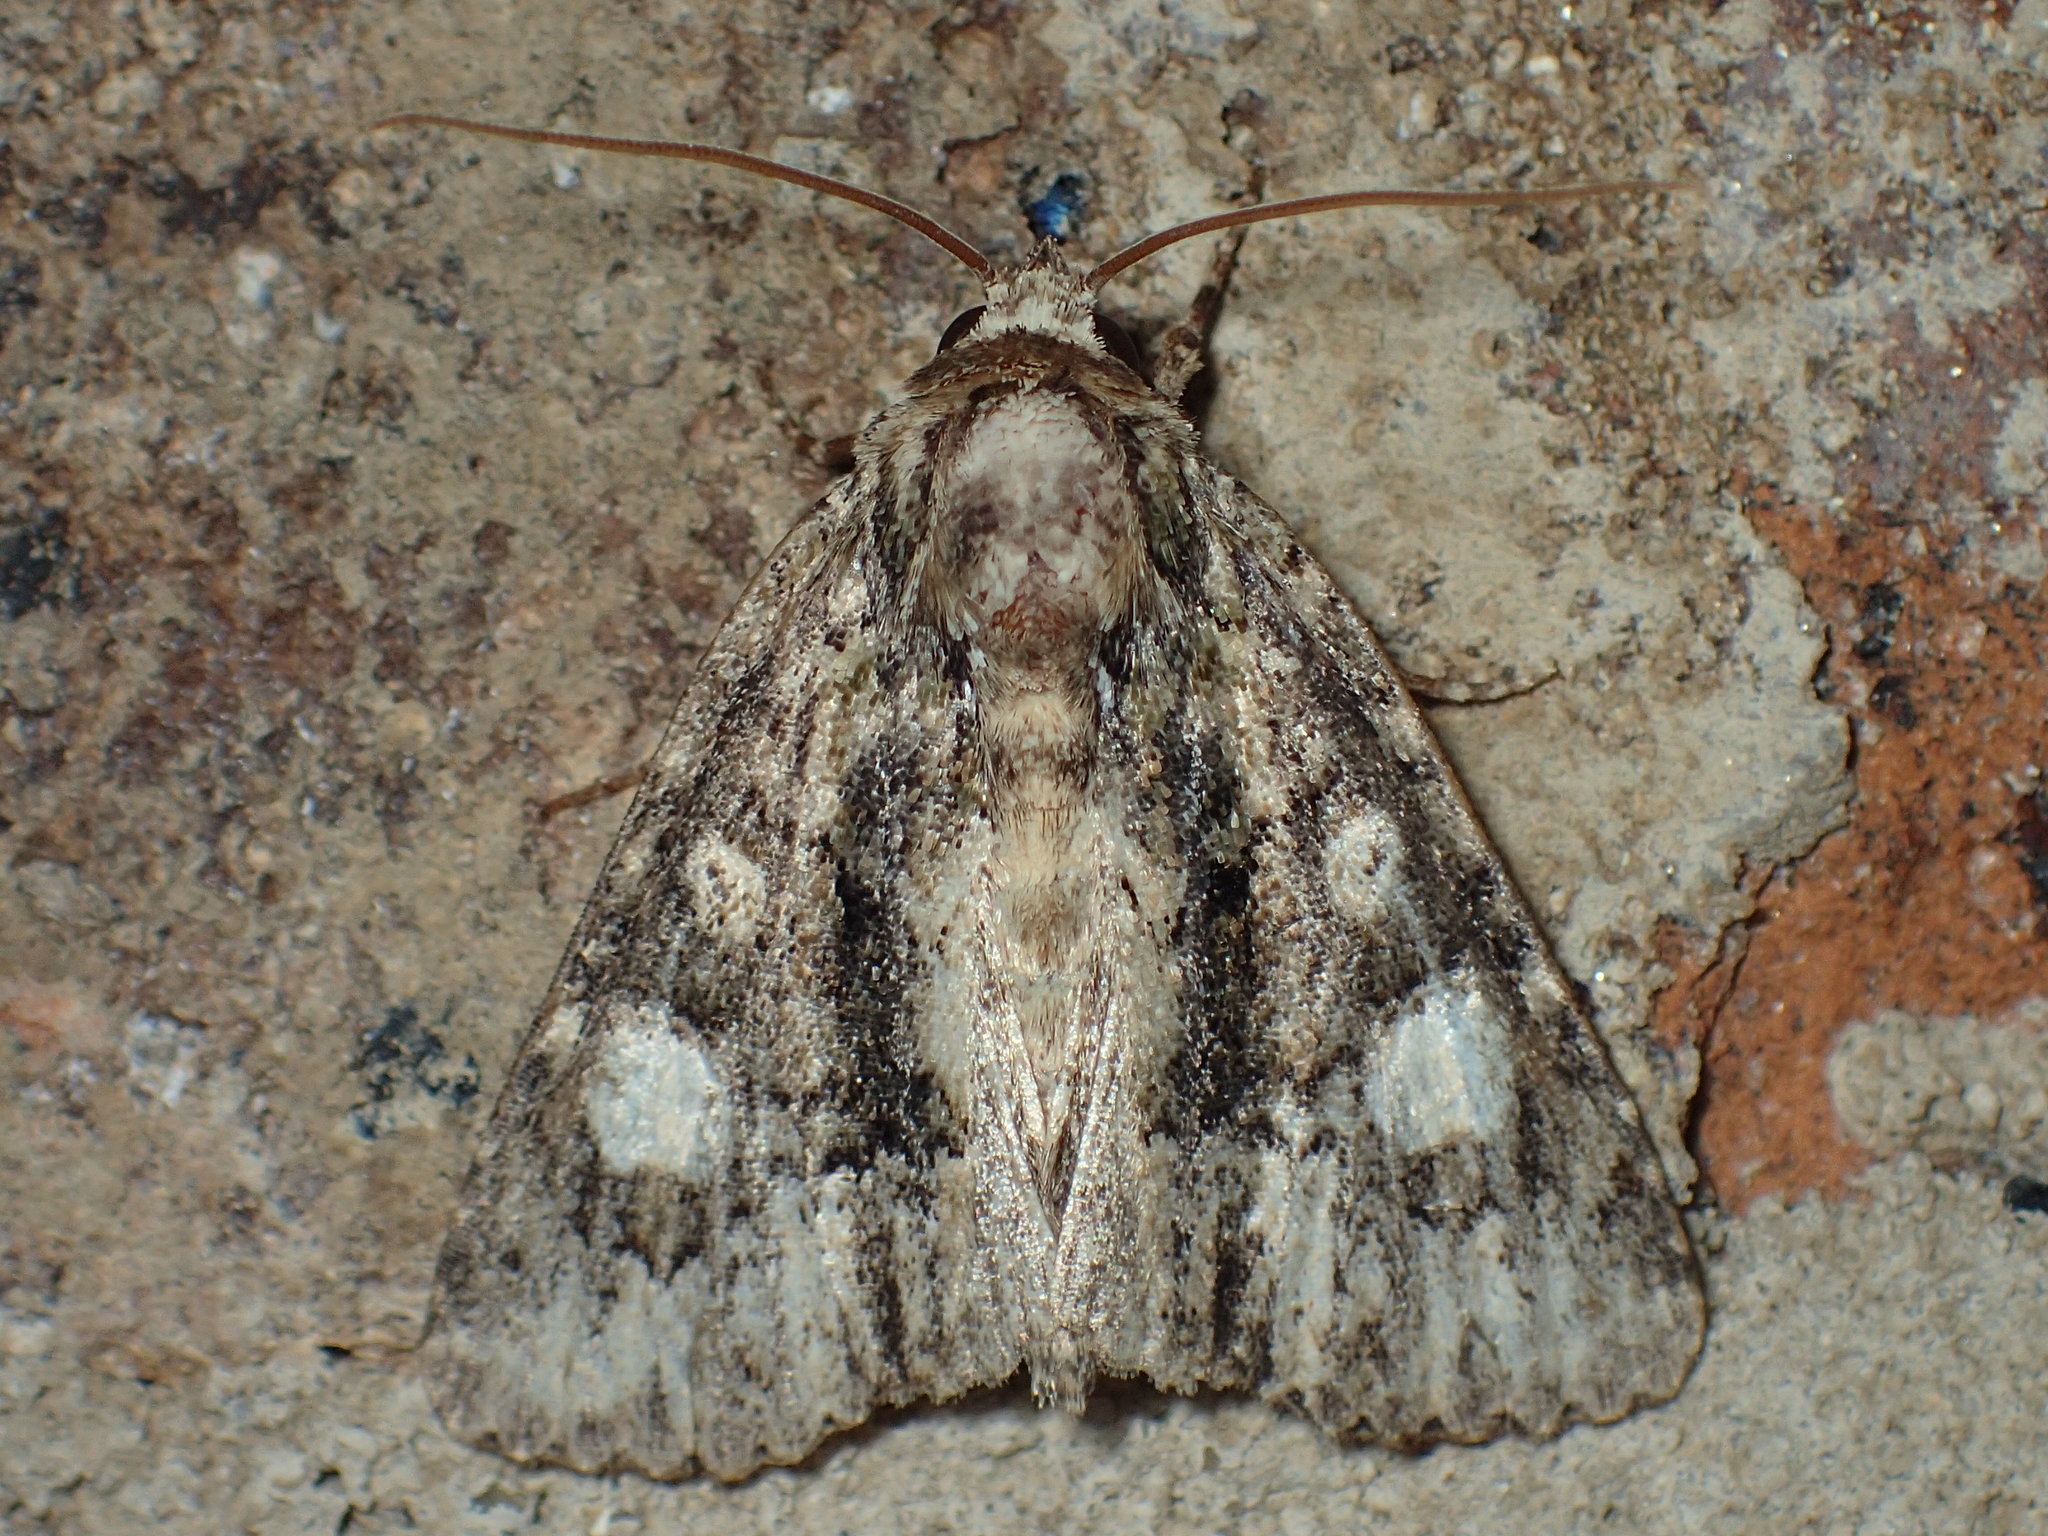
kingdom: Animalia
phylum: Arthropoda
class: Insecta
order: Lepidoptera
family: Noctuidae
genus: Phosphila
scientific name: Phosphila miselioides
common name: Spotted phosphila moth
